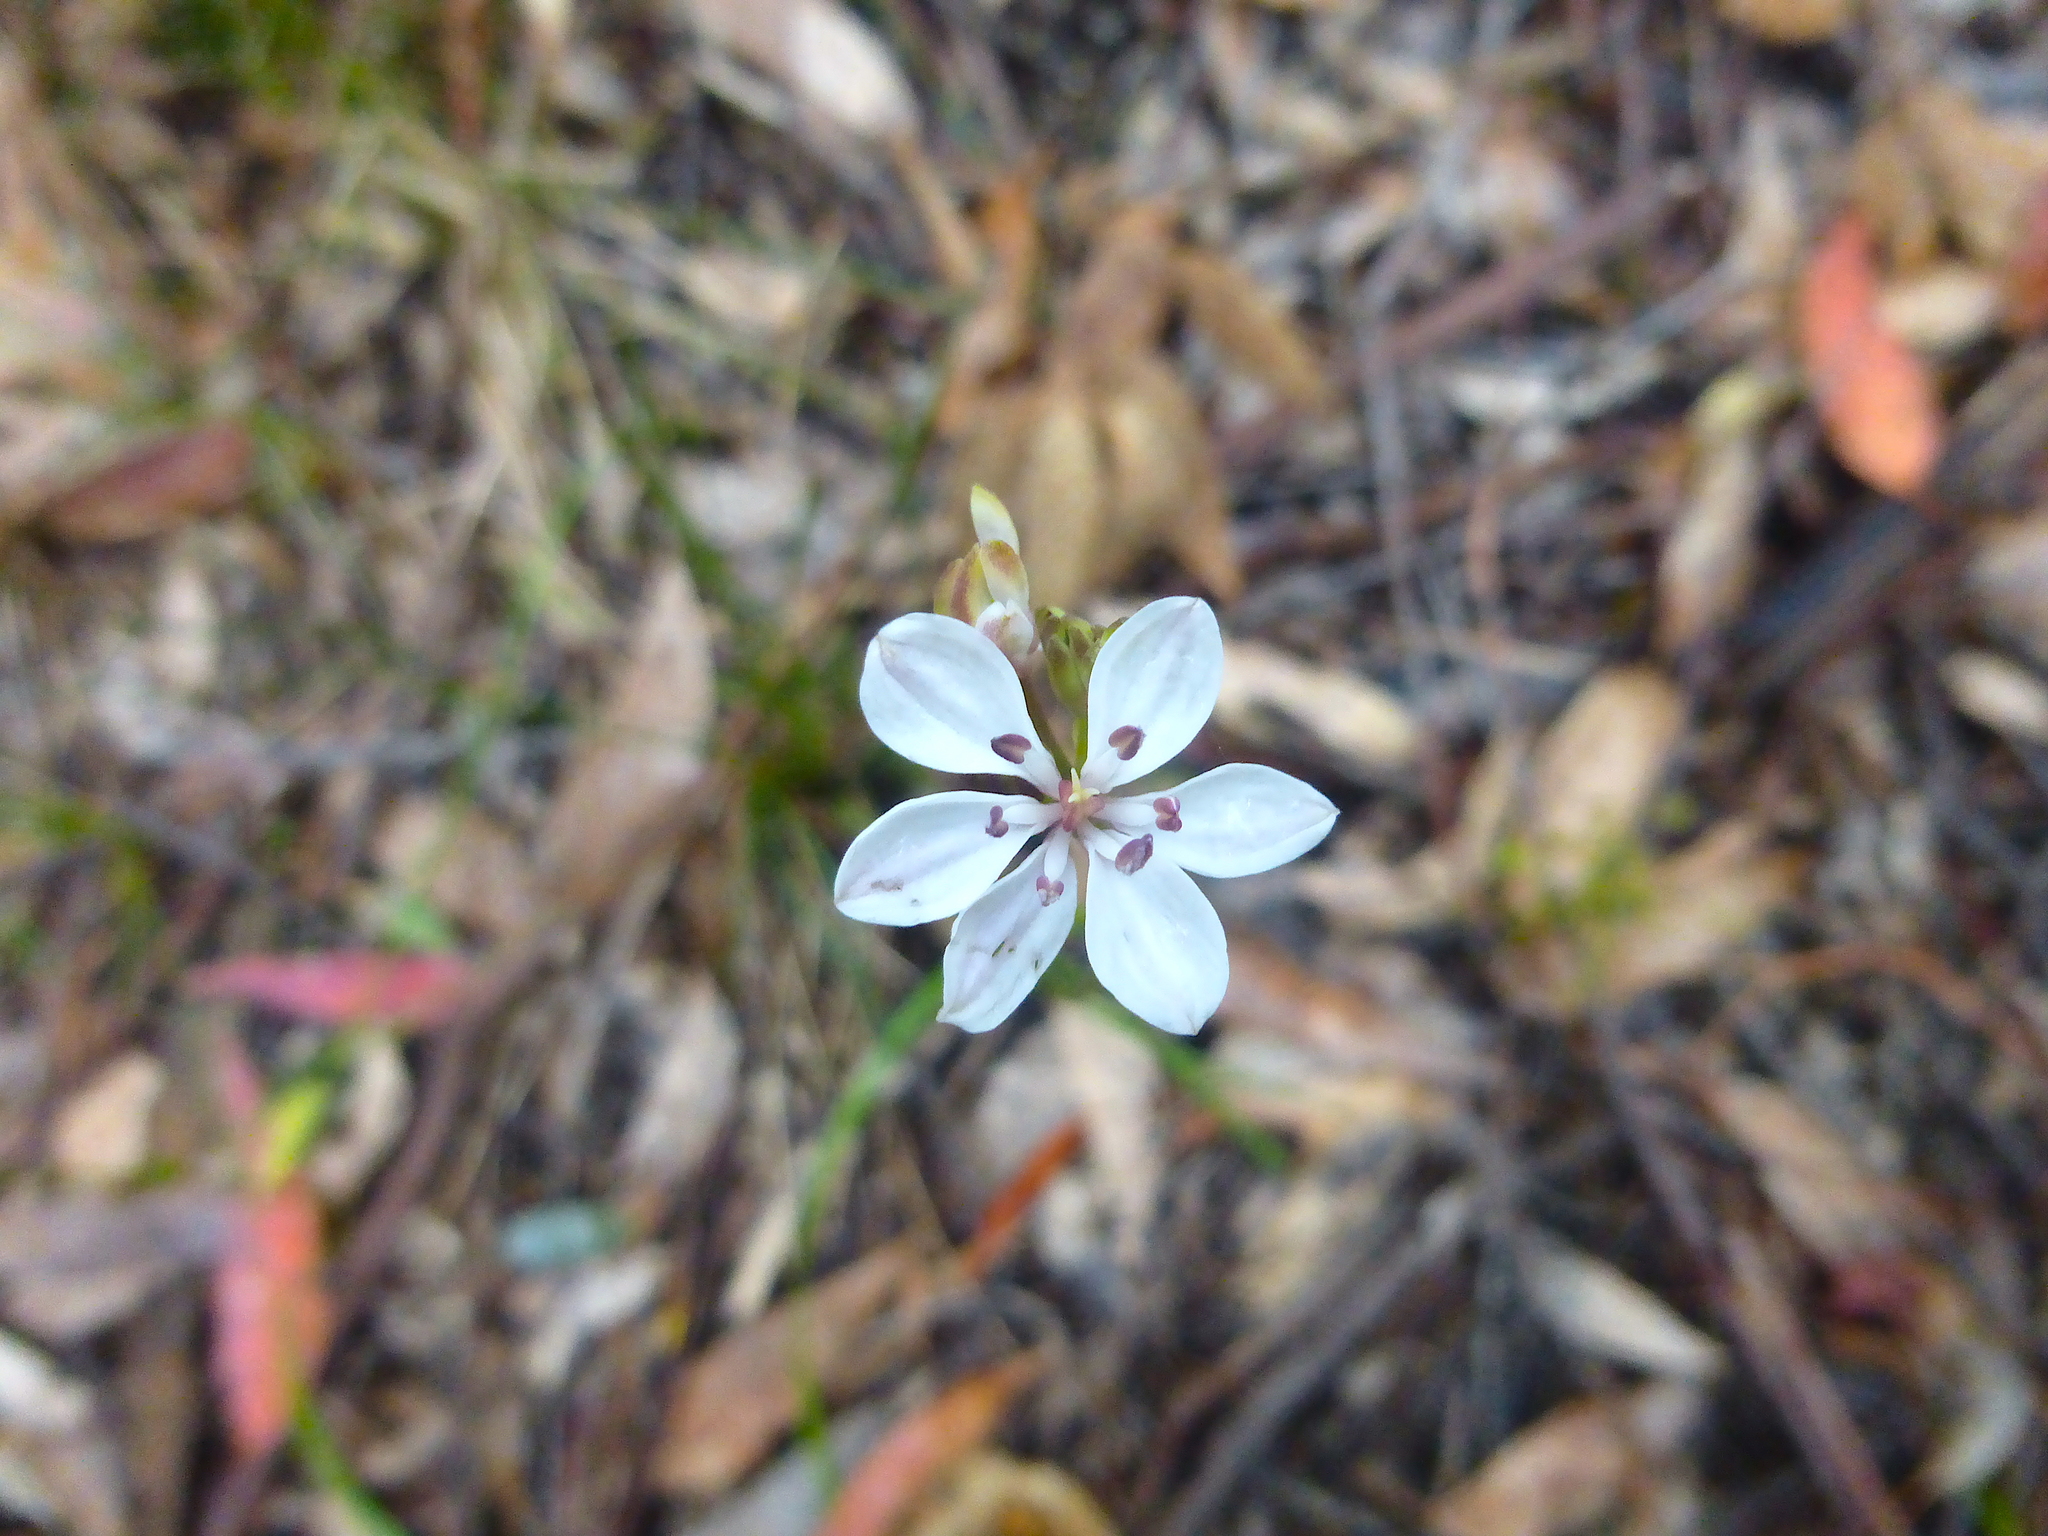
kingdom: Plantae
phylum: Tracheophyta
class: Liliopsida
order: Liliales
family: Colchicaceae
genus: Burchardia
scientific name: Burchardia umbellata
